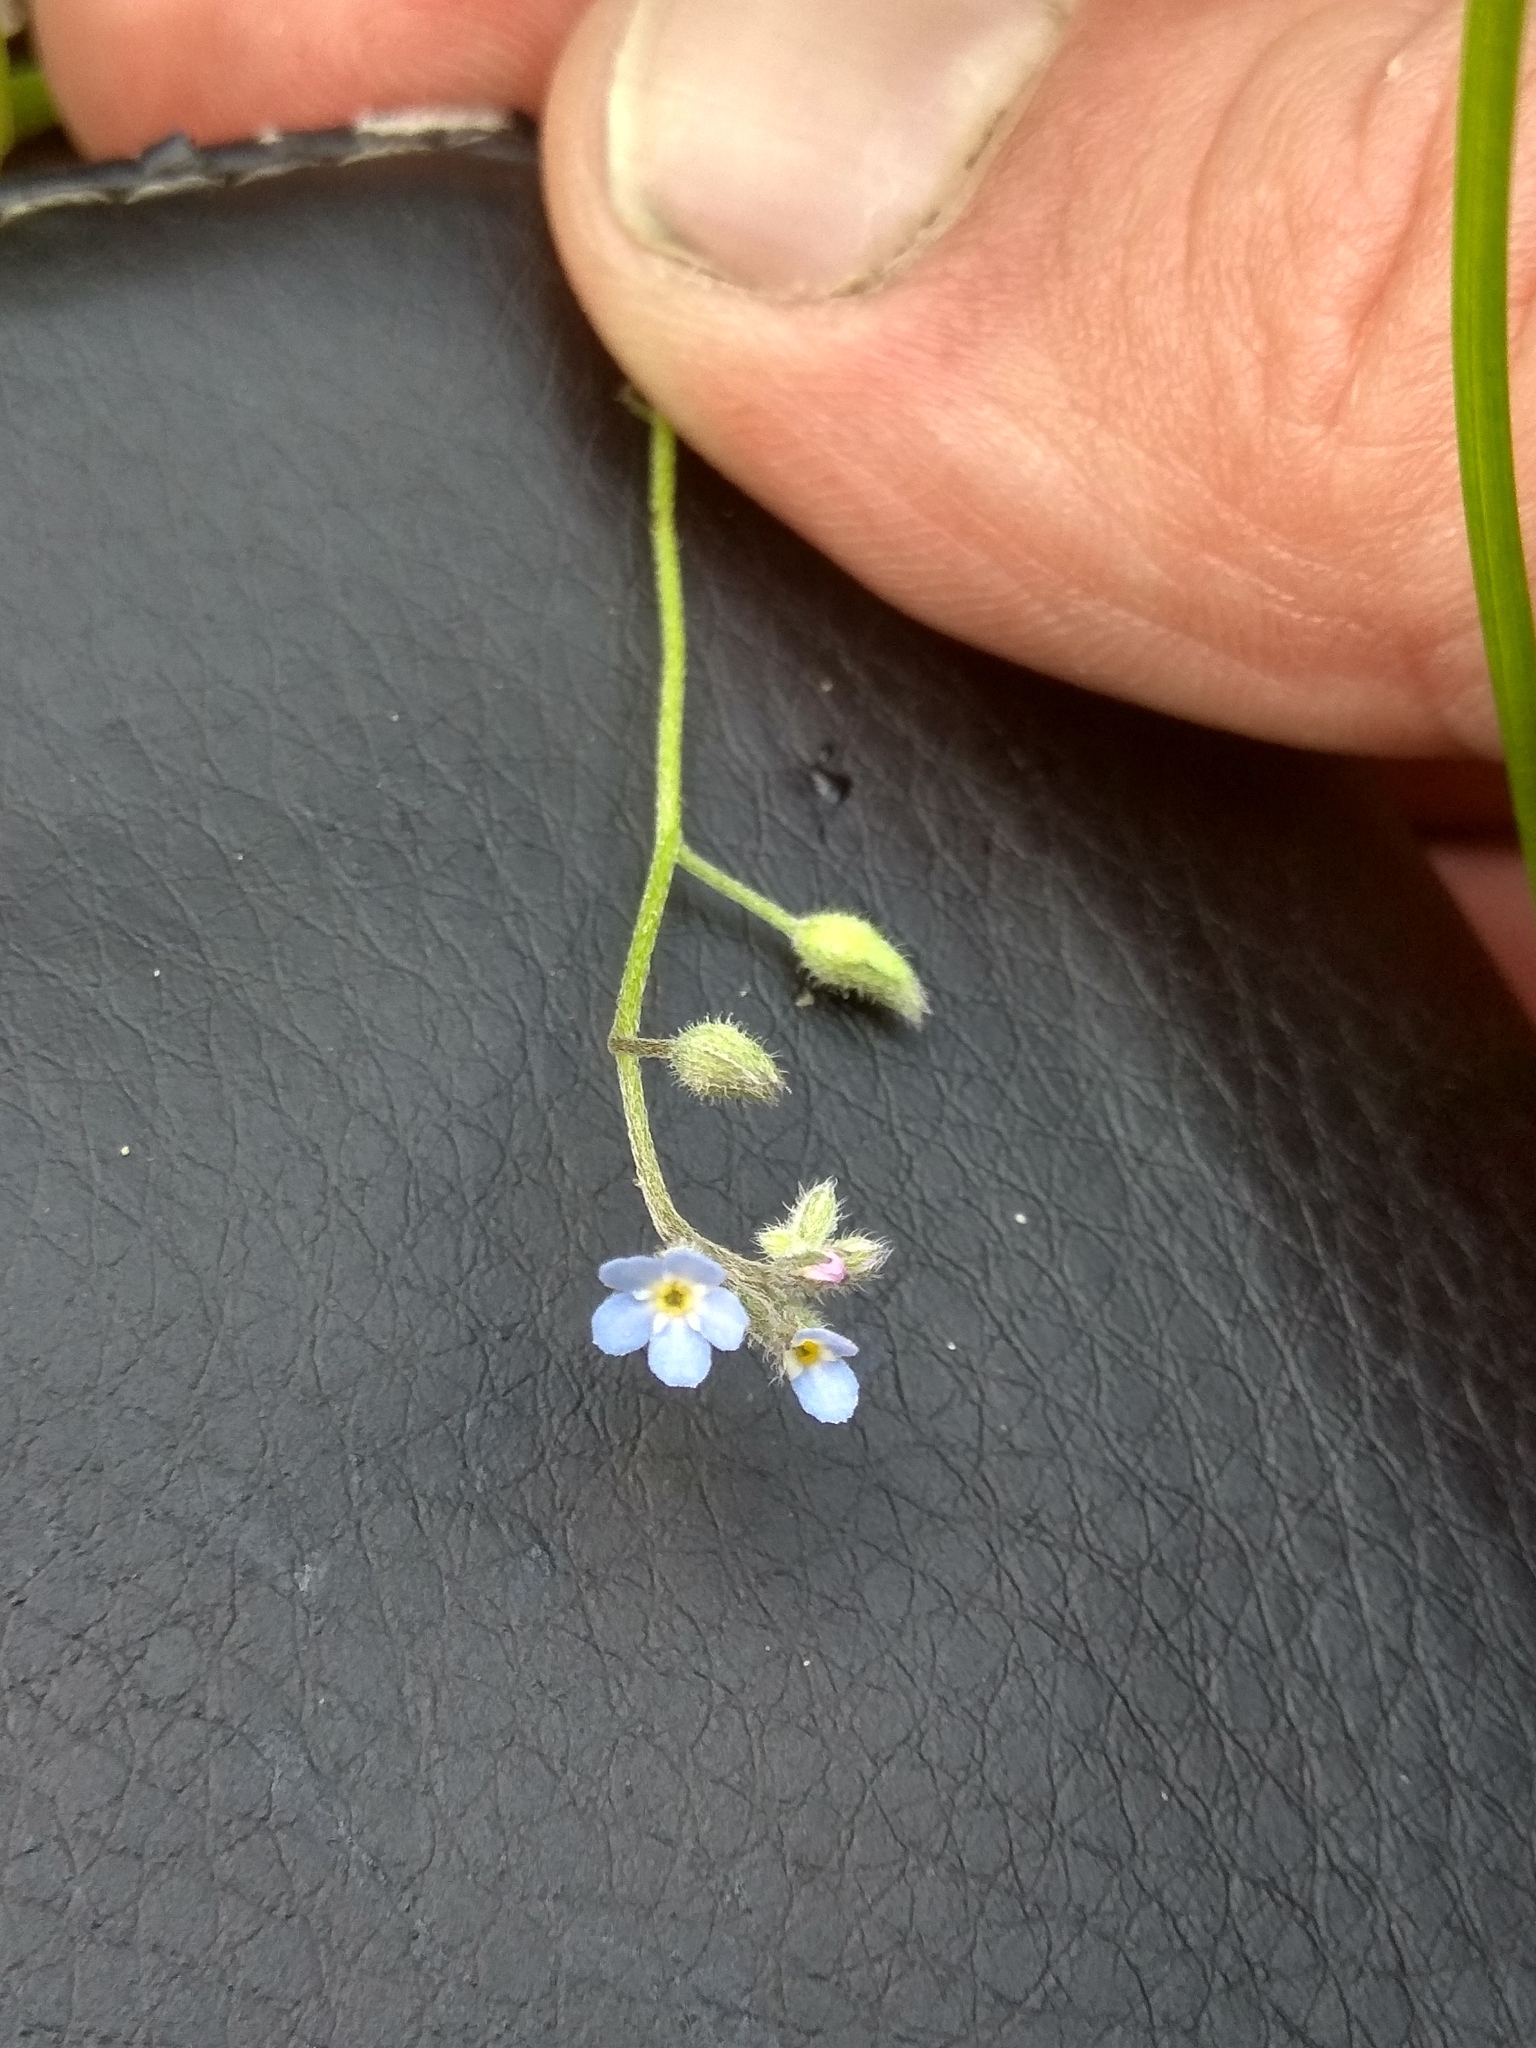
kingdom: Plantae
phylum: Tracheophyta
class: Magnoliopsida
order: Boraginales
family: Boraginaceae
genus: Myosotis
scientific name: Myosotis arvensis
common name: Field forget-me-not
